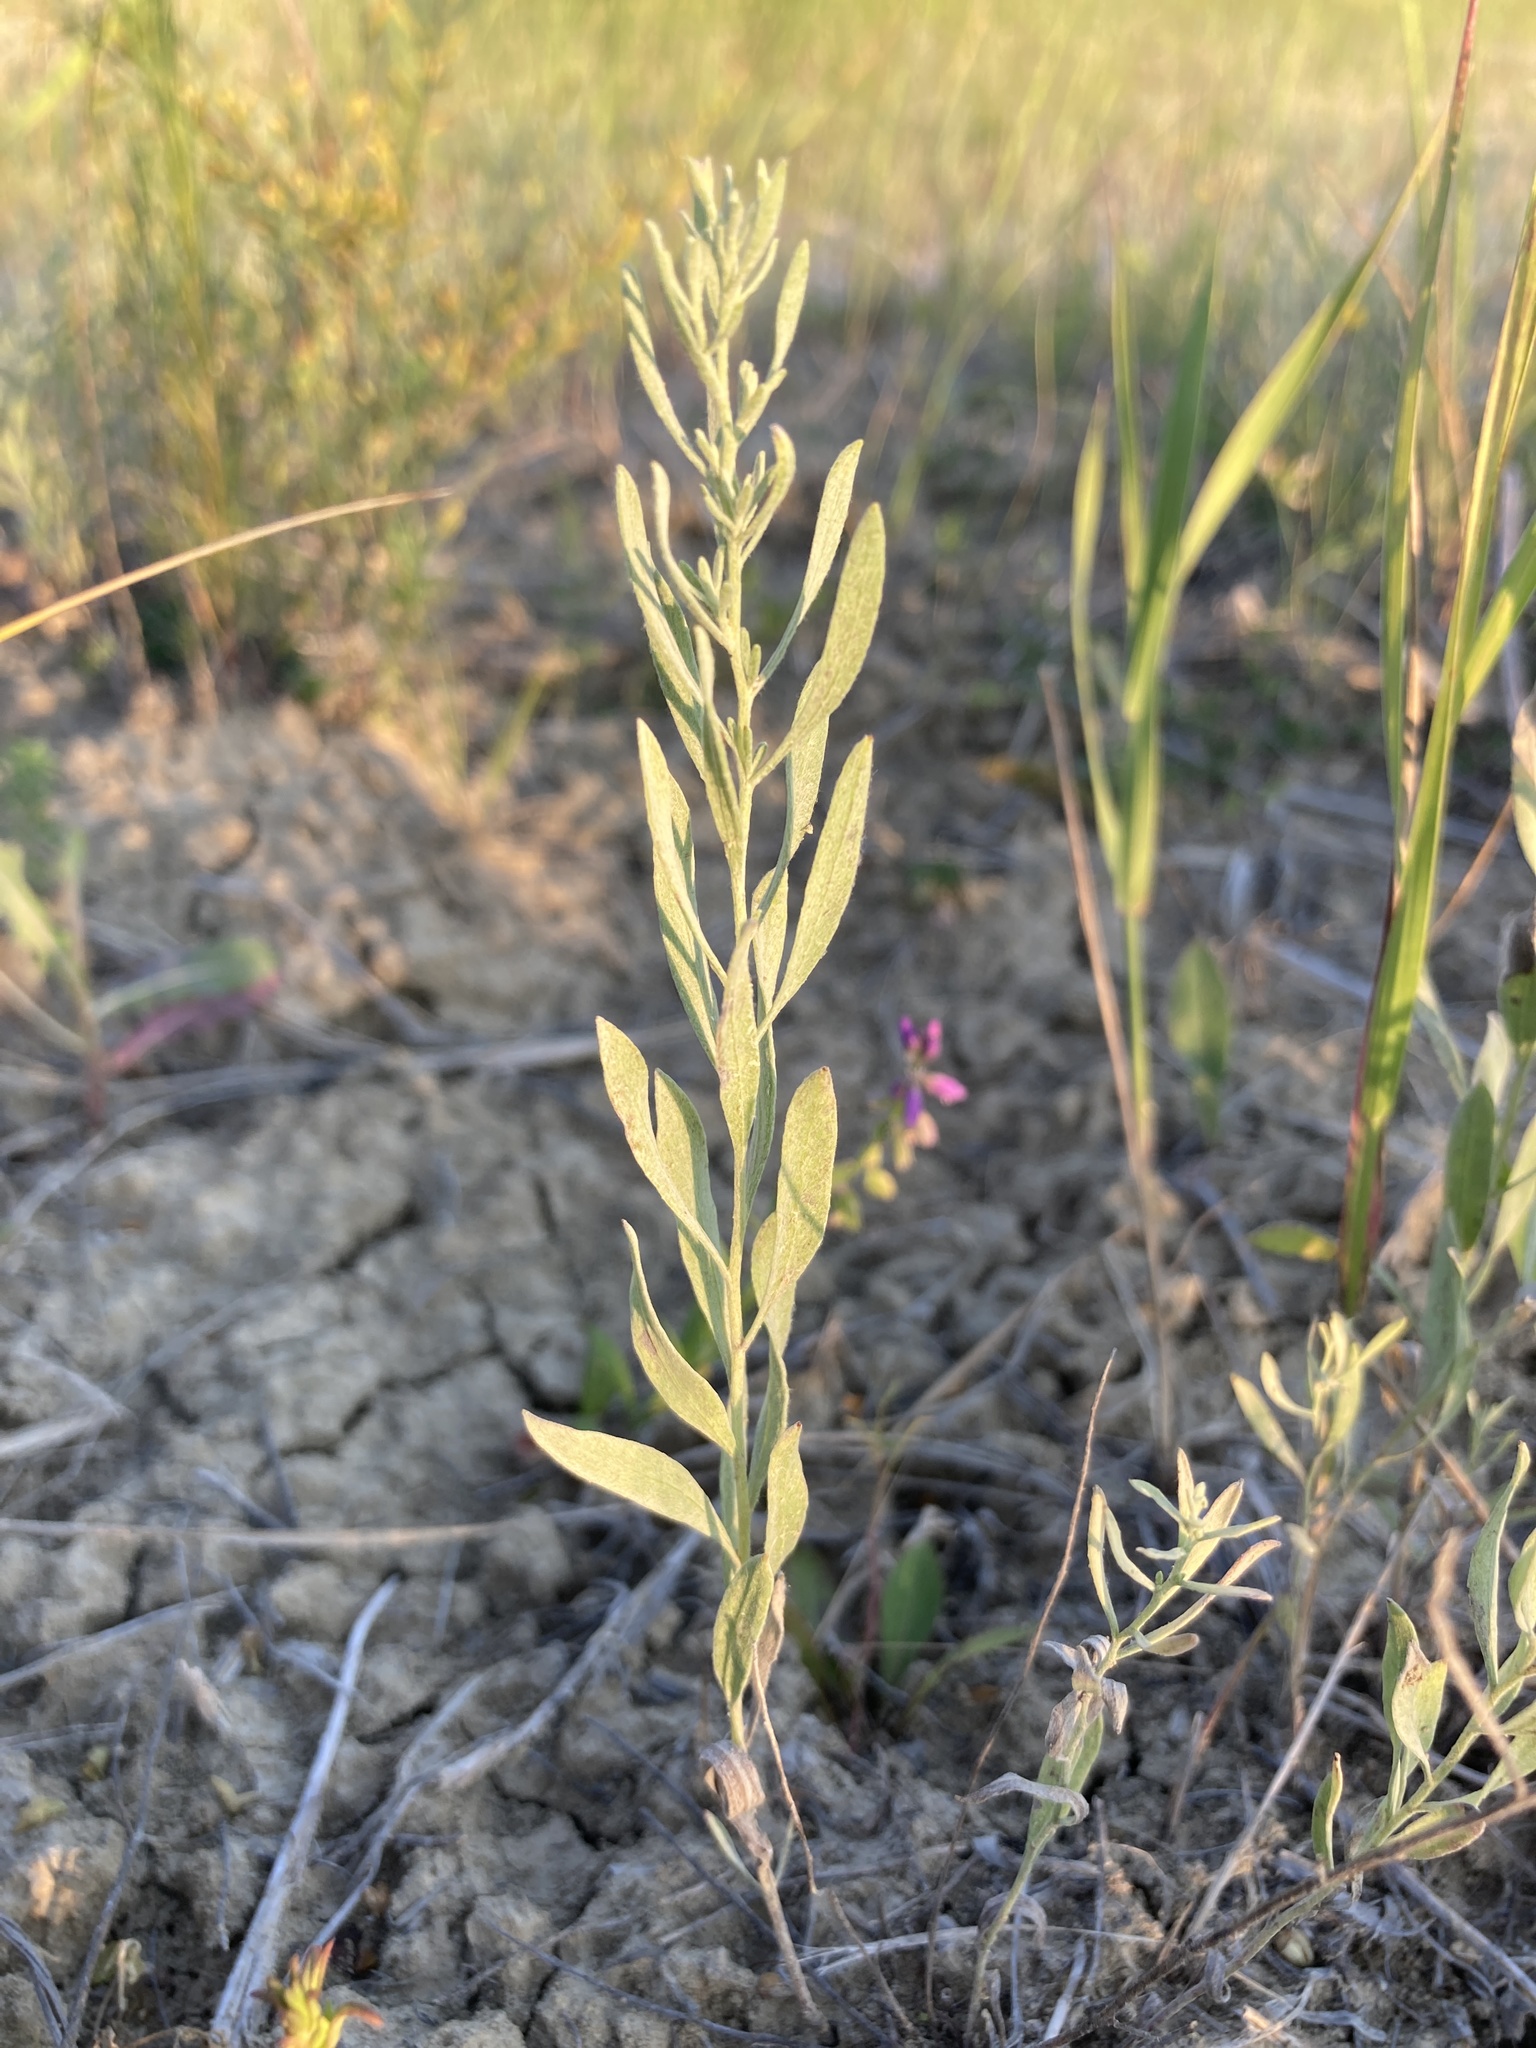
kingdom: Plantae
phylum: Tracheophyta
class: Magnoliopsida
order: Asterales
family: Asteraceae
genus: Galatella
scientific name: Galatella villosa
